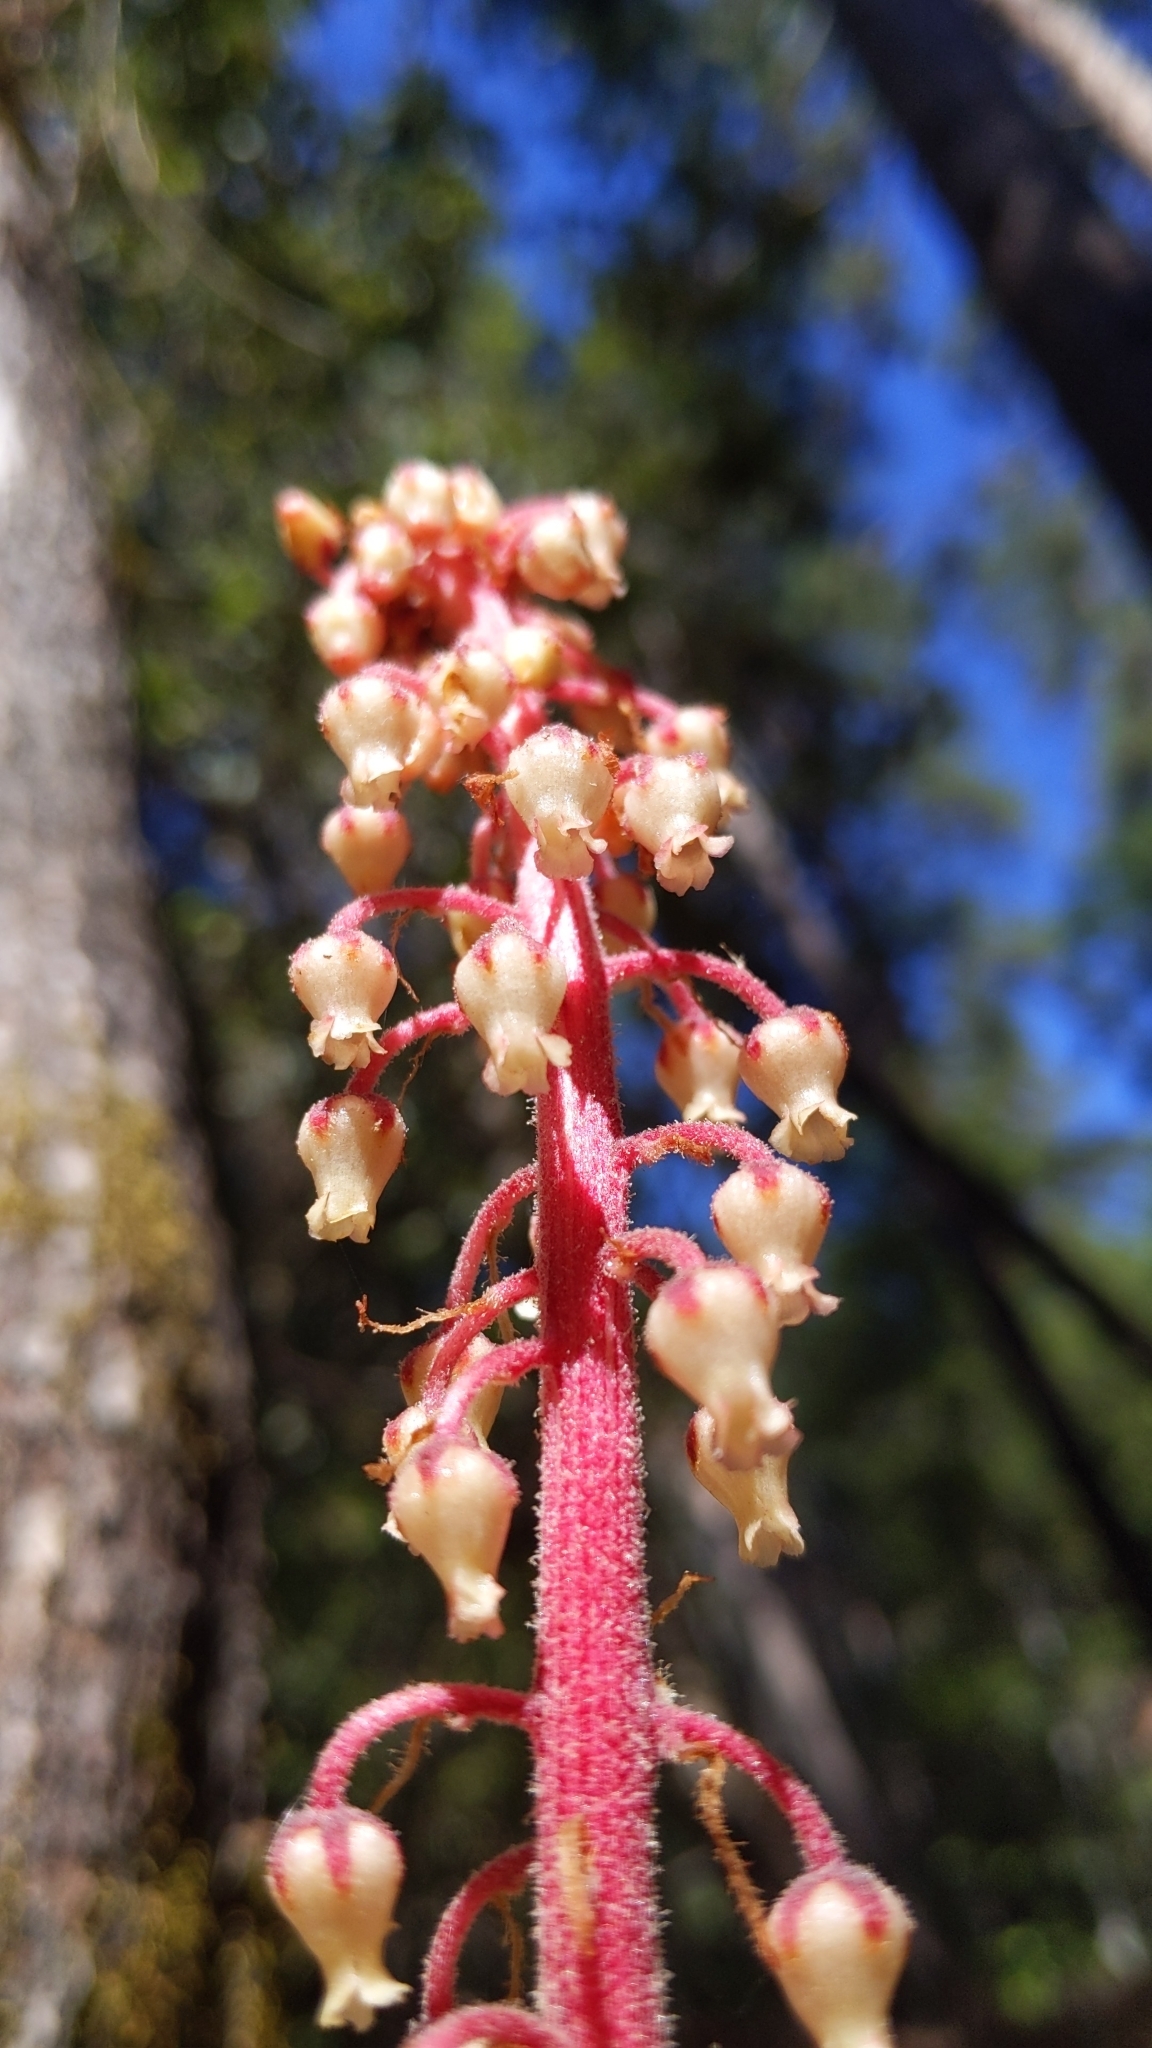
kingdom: Plantae
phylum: Tracheophyta
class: Magnoliopsida
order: Ericales
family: Ericaceae
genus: Pterospora
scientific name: Pterospora andromedea
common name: Giant bird's-nest
